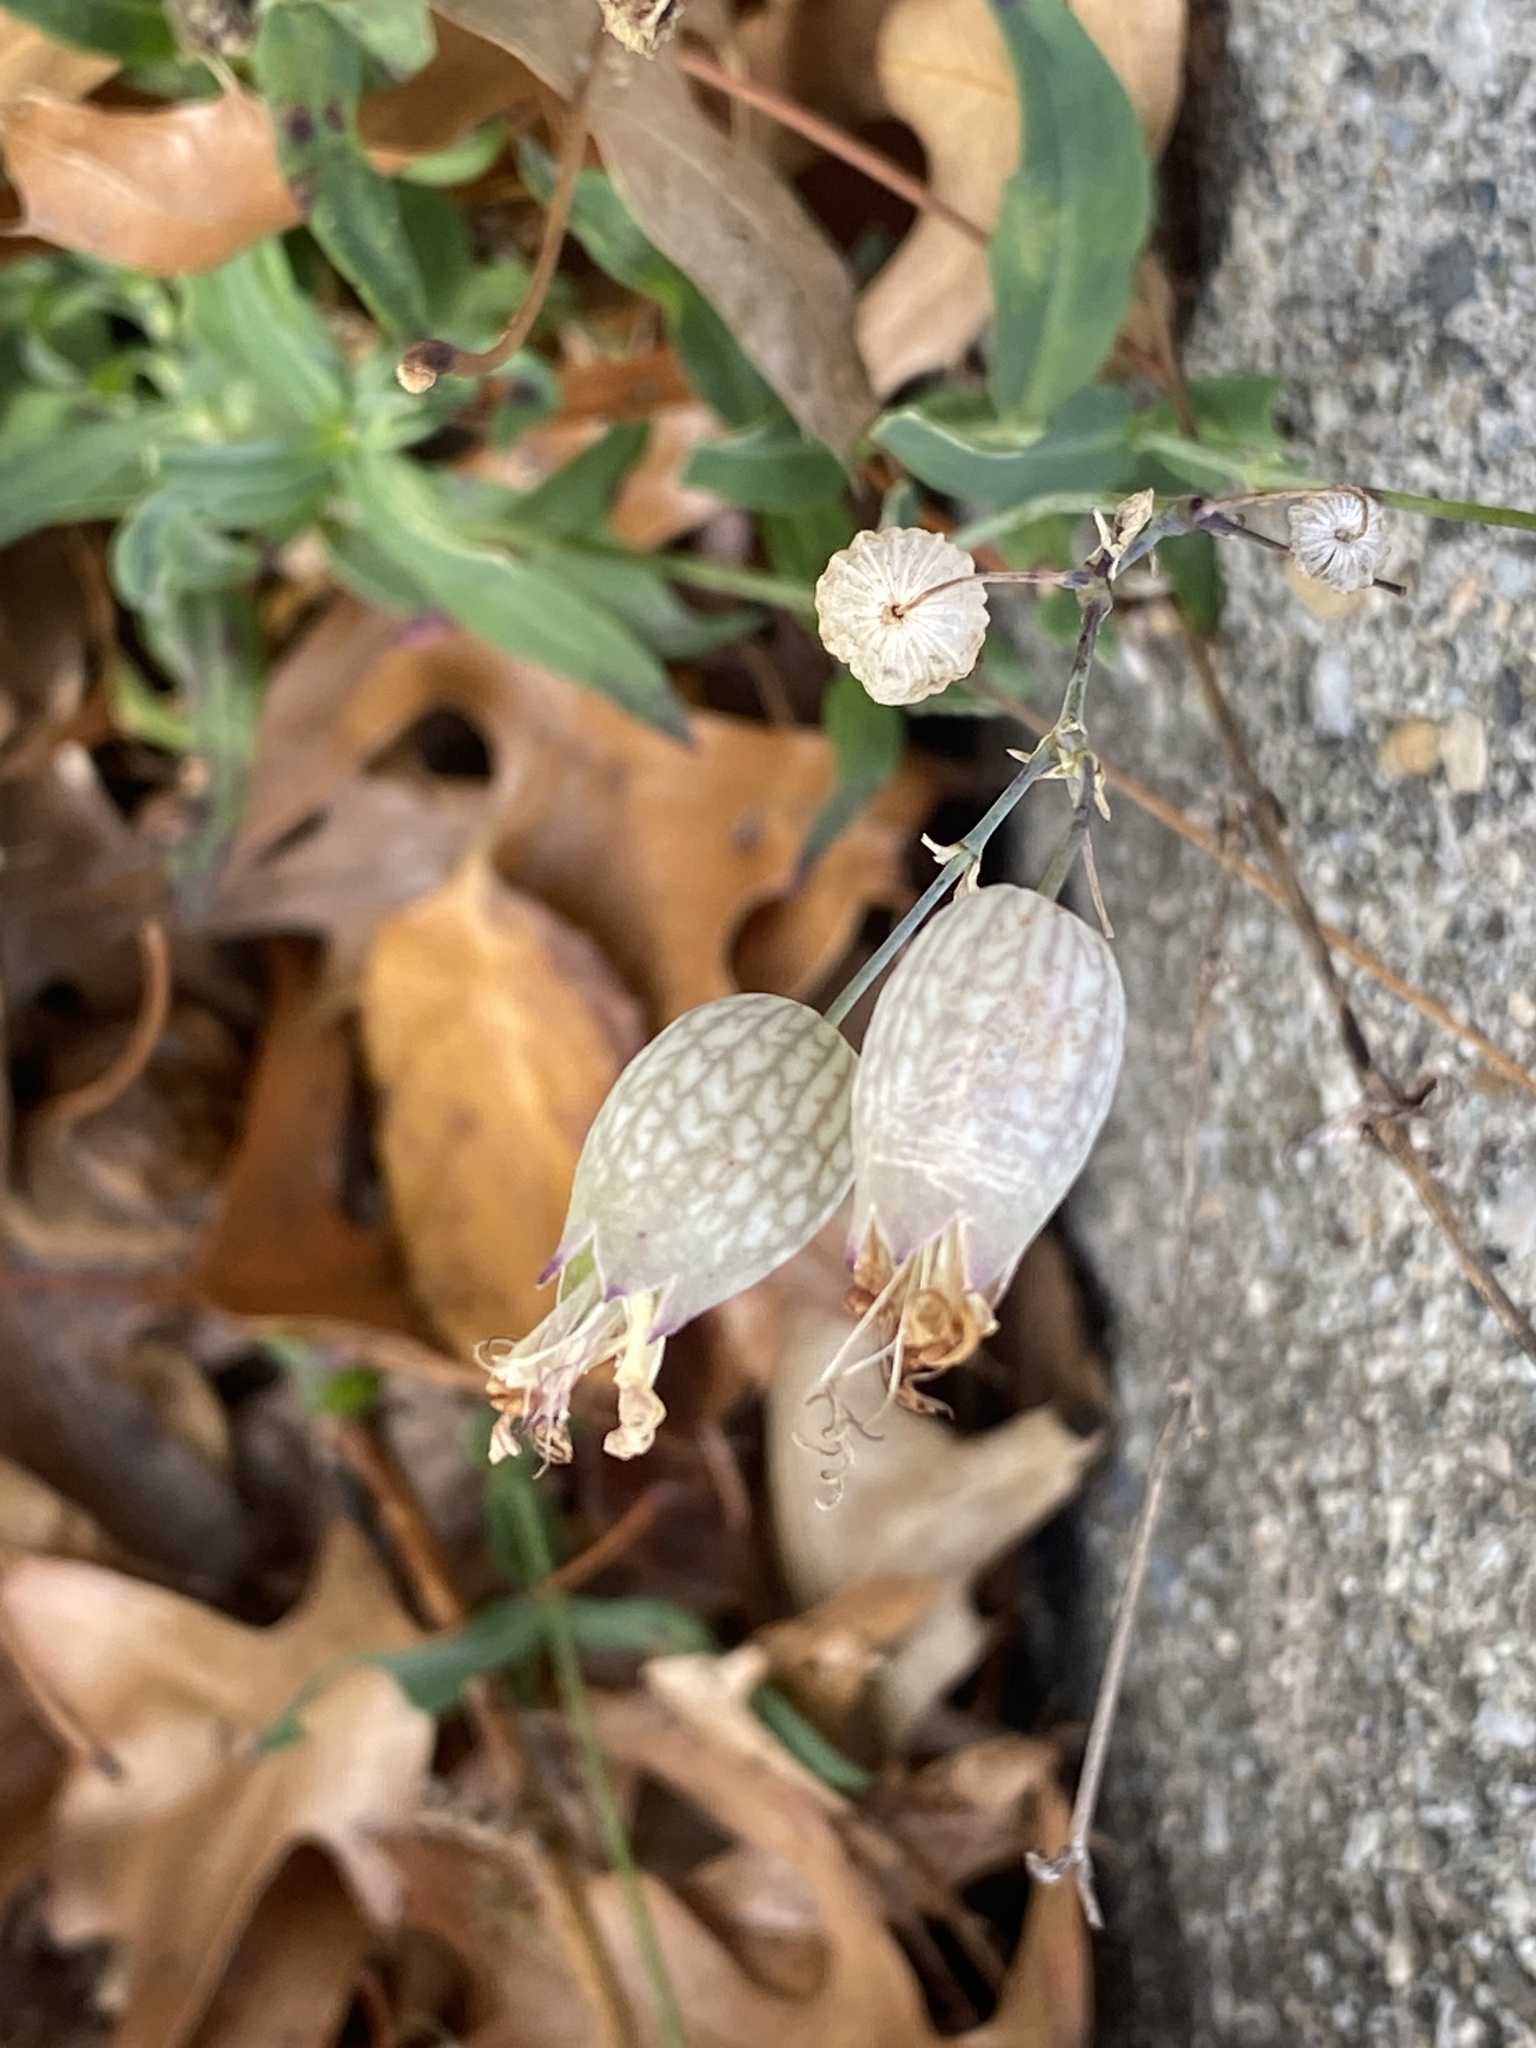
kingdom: Plantae
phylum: Tracheophyta
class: Magnoliopsida
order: Caryophyllales
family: Caryophyllaceae
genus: Silene
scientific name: Silene vulgaris
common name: Bladder campion
